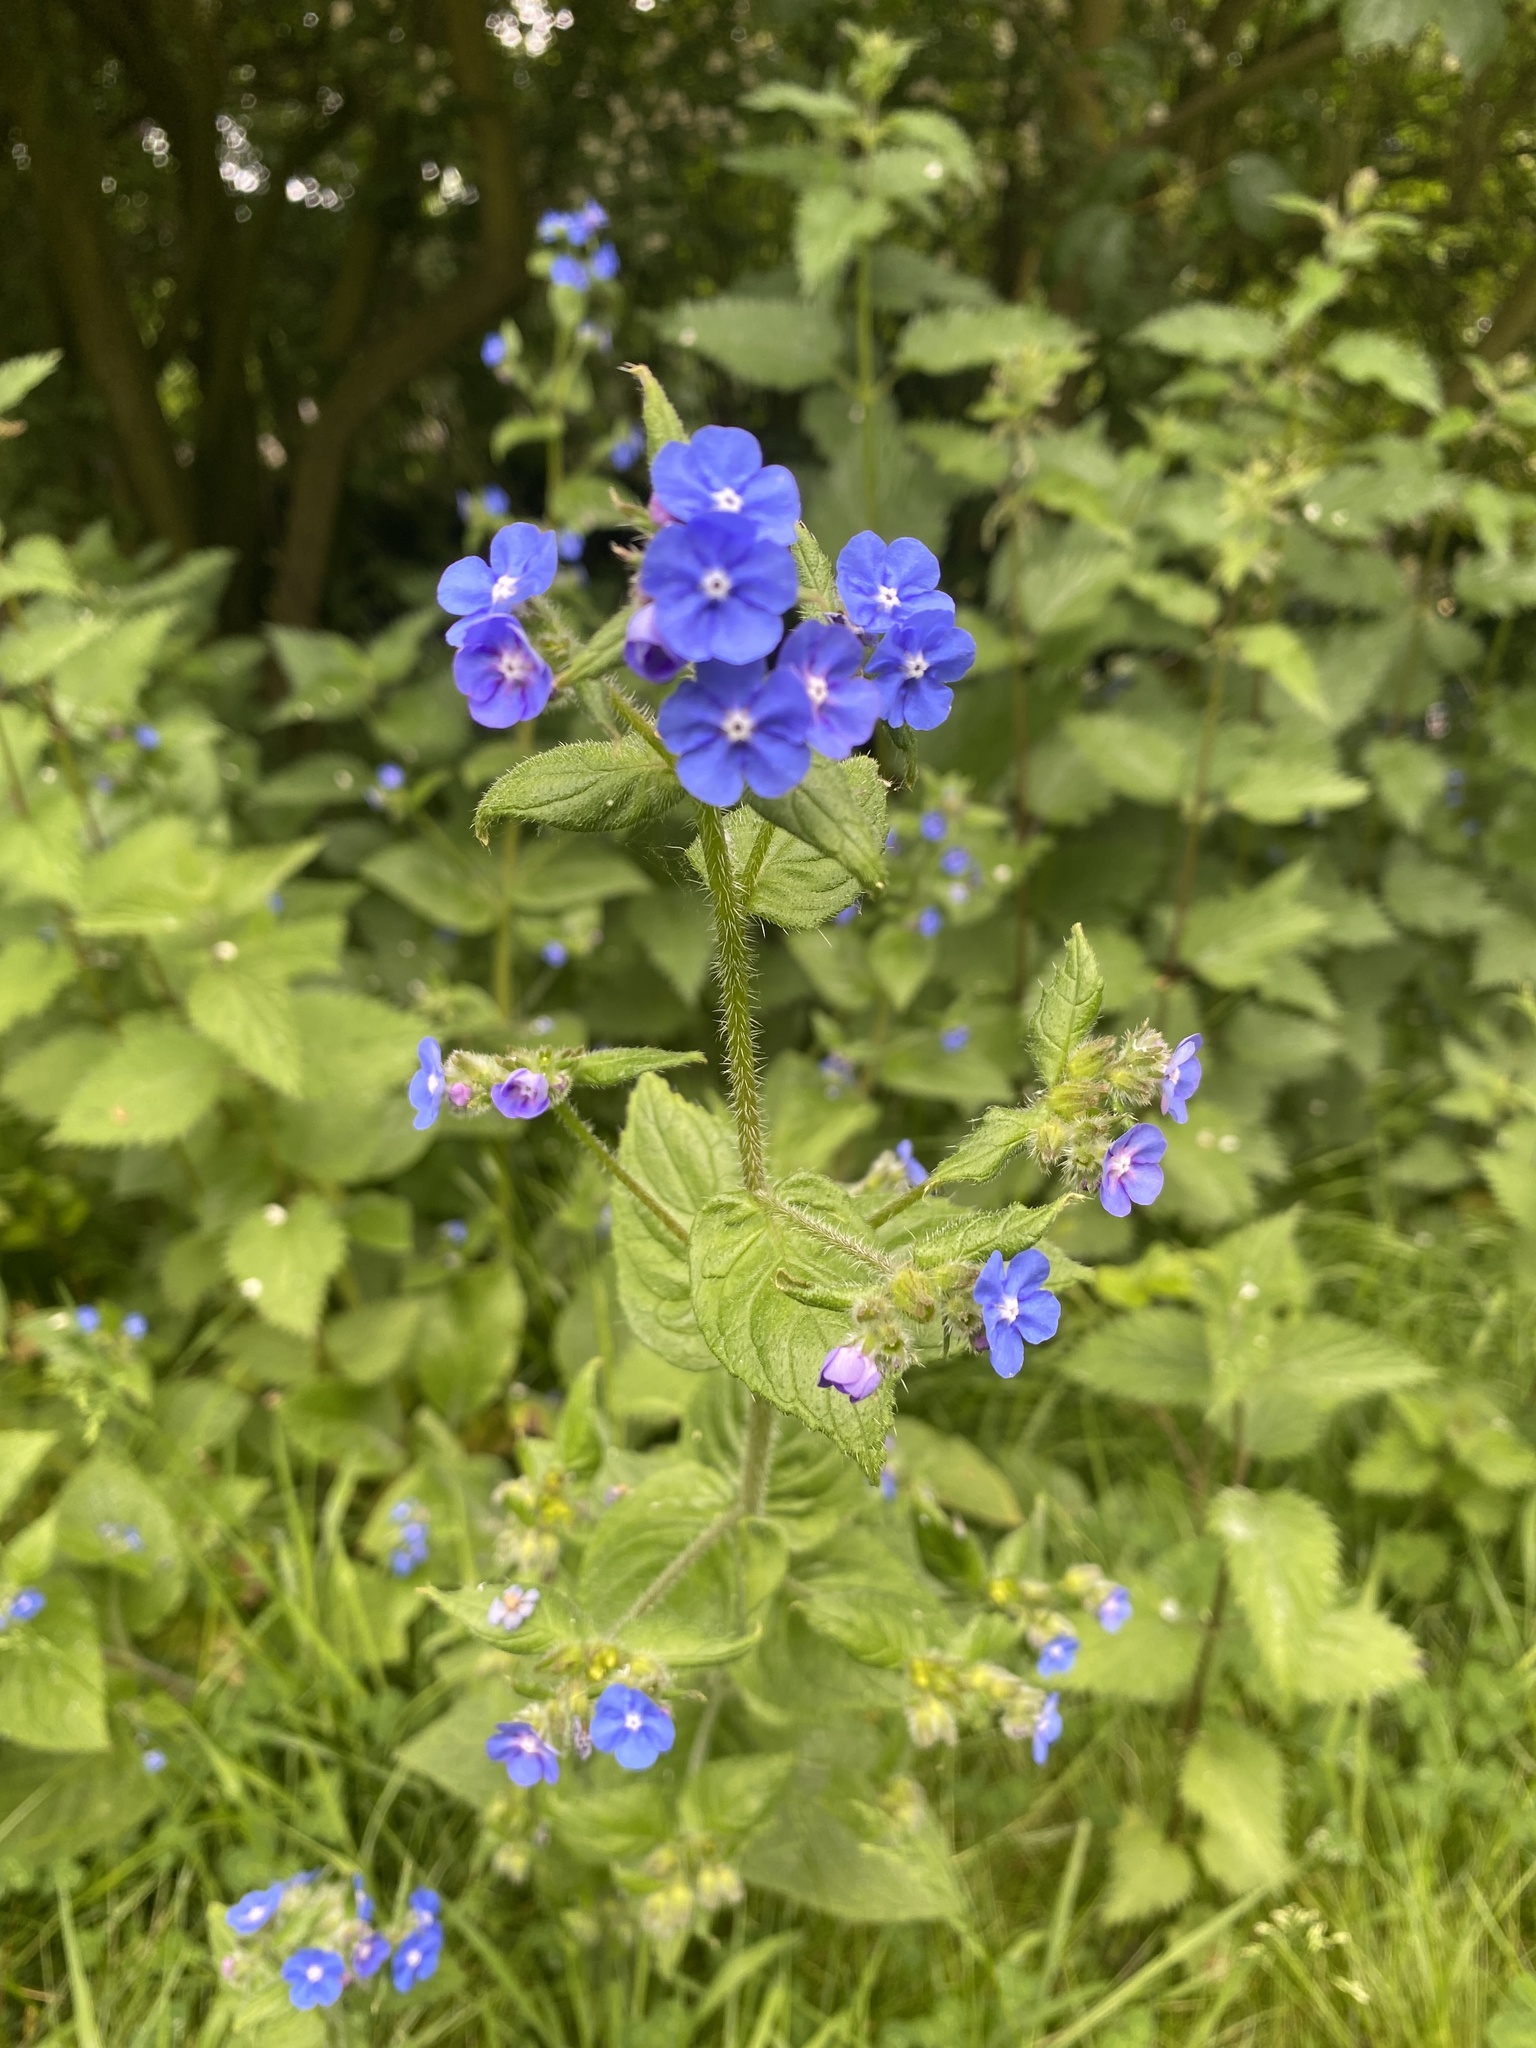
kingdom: Plantae
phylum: Tracheophyta
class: Magnoliopsida
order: Boraginales
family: Boraginaceae
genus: Pentaglottis
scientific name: Pentaglottis sempervirens
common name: Green alkanet
